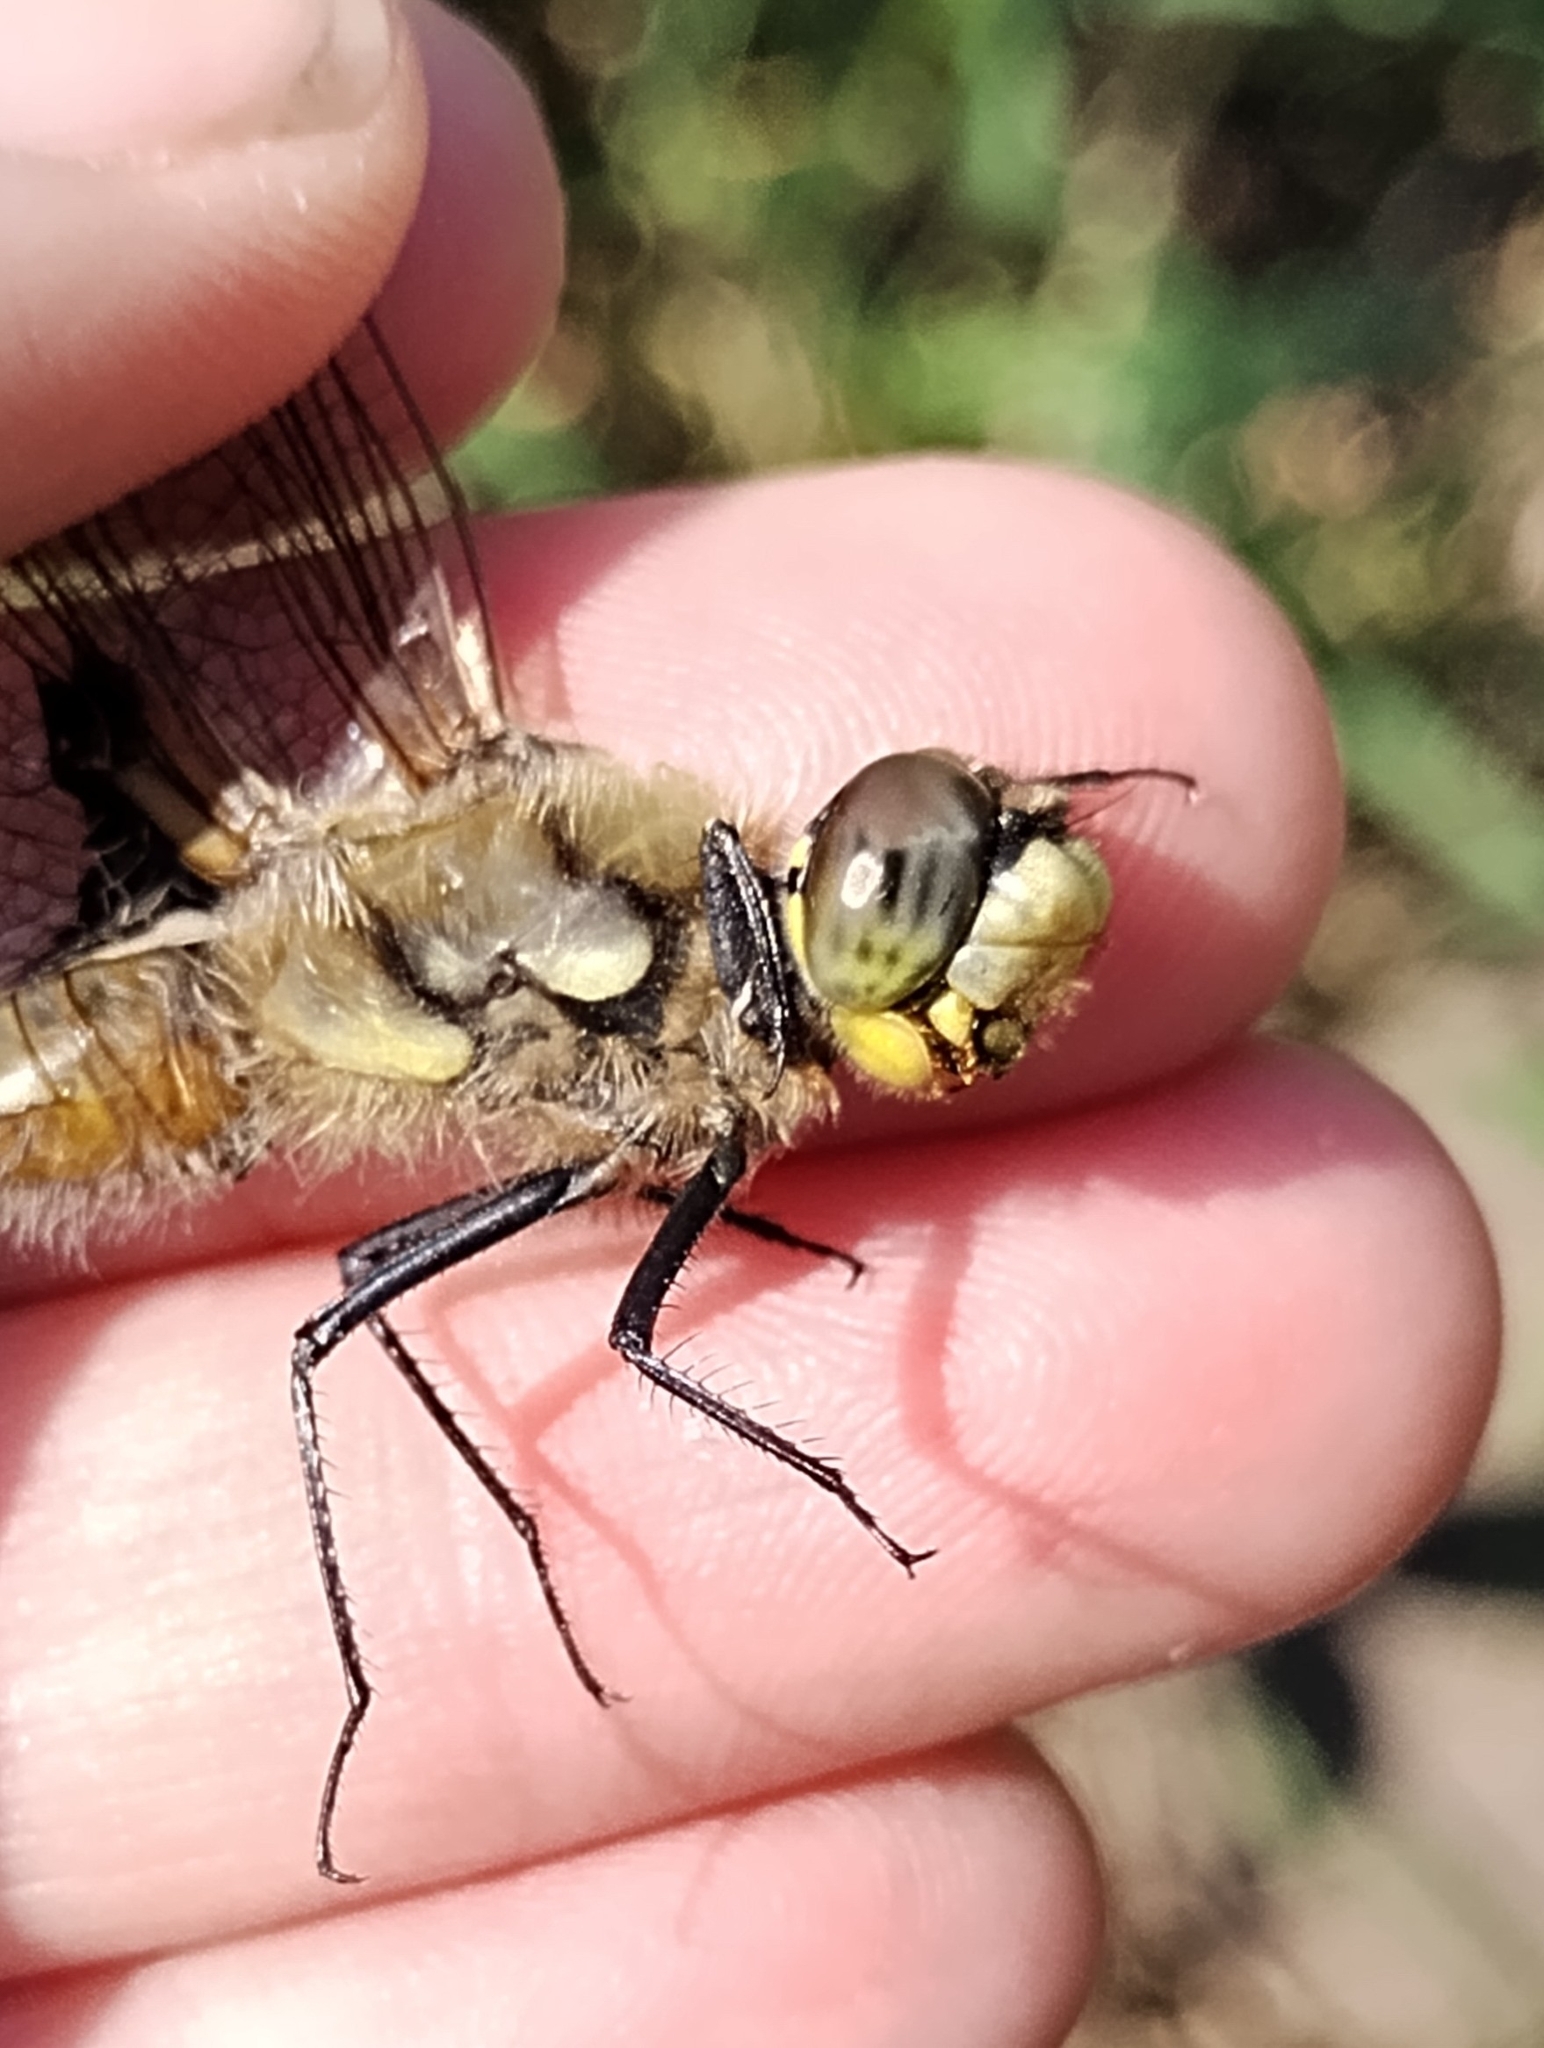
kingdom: Animalia
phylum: Arthropoda
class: Insecta
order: Odonata
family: Libellulidae
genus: Libellula
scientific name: Libellula quadrimaculata
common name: Four-spotted chaser
